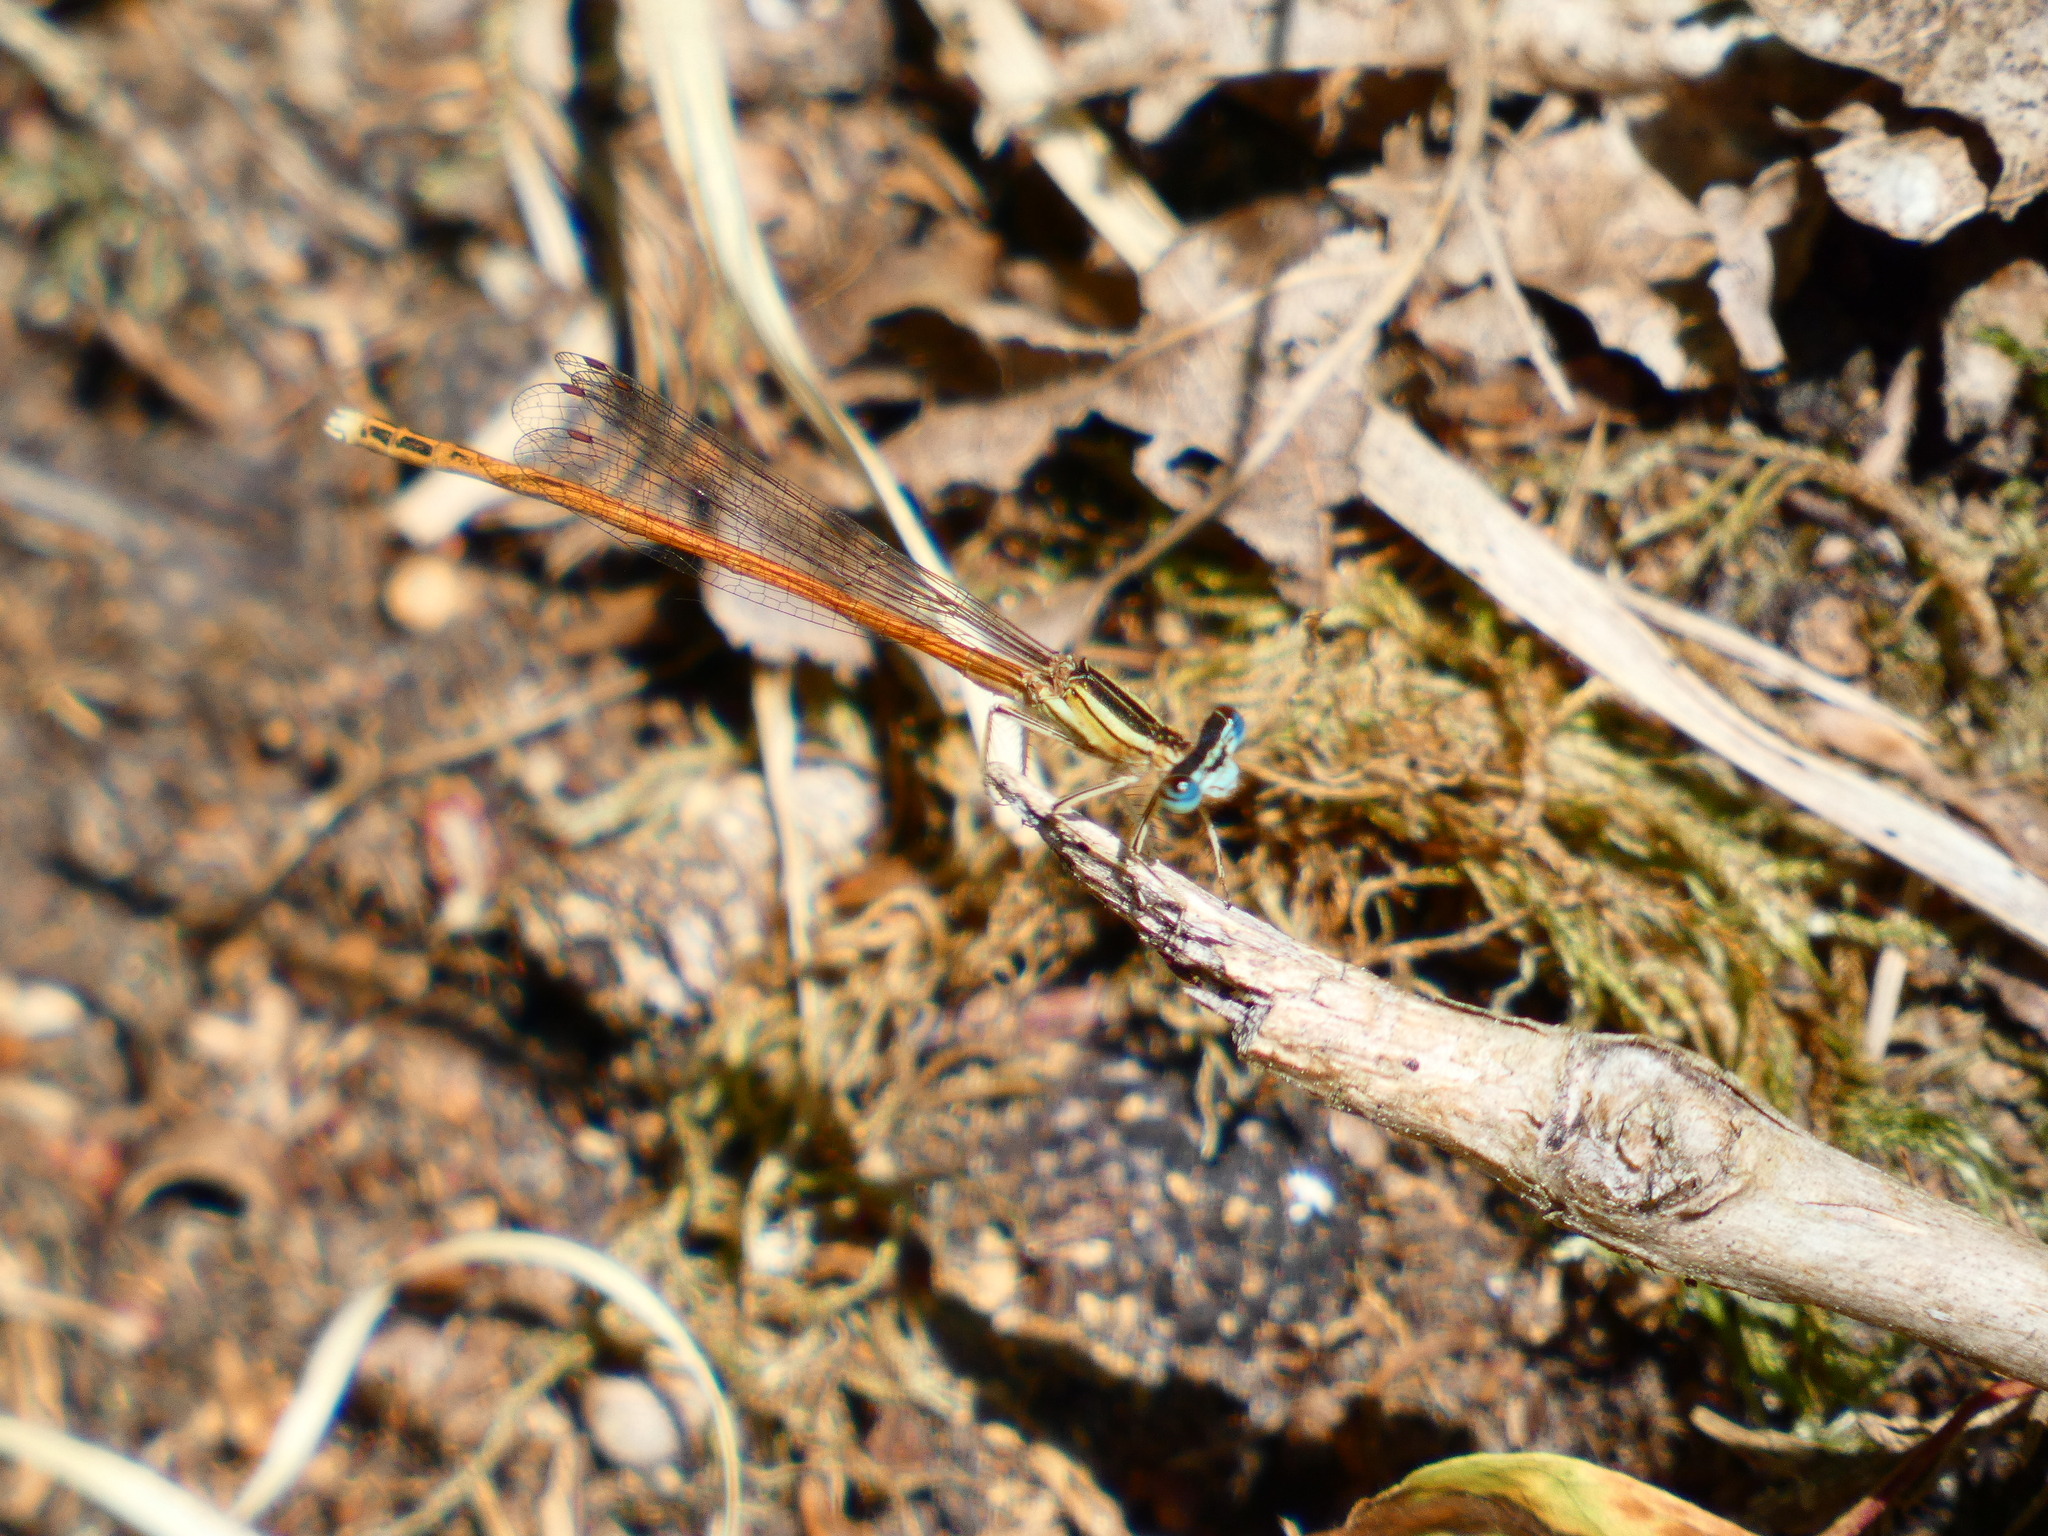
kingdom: Animalia
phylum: Arthropoda
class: Insecta
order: Odonata
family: Platycnemididae
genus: Platycnemis
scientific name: Platycnemis acutipennis
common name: Orange featherleg
